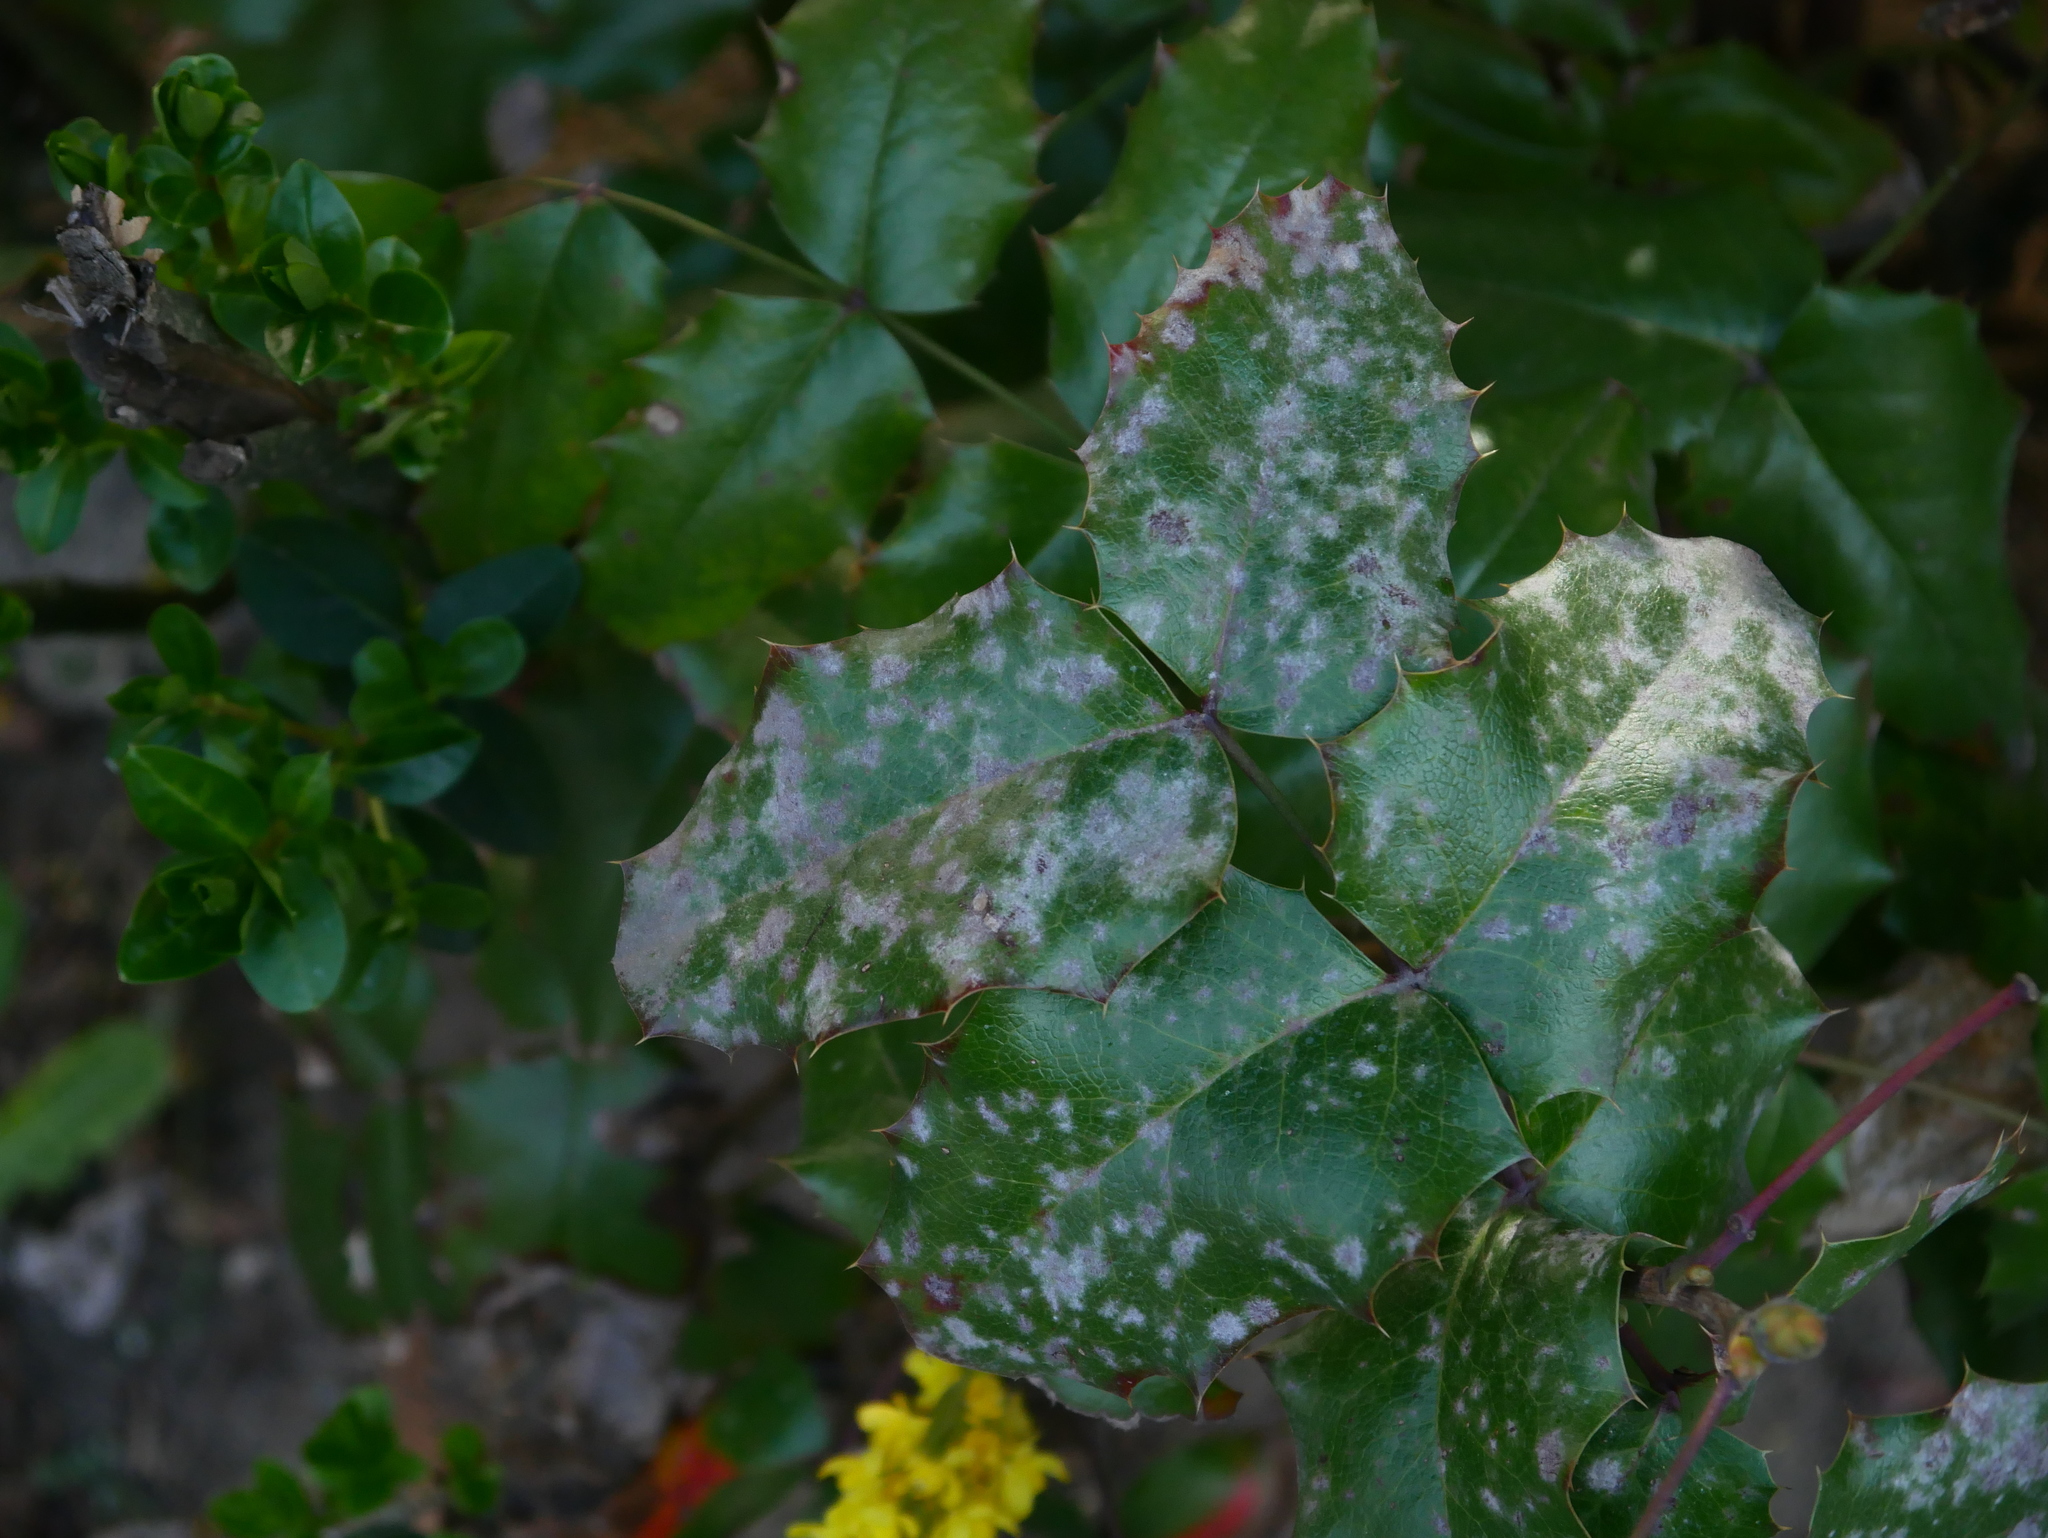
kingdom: Plantae
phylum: Tracheophyta
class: Magnoliopsida
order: Ranunculales
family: Berberidaceae
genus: Mahonia
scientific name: Mahonia aquifolium
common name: Oregon-grape
